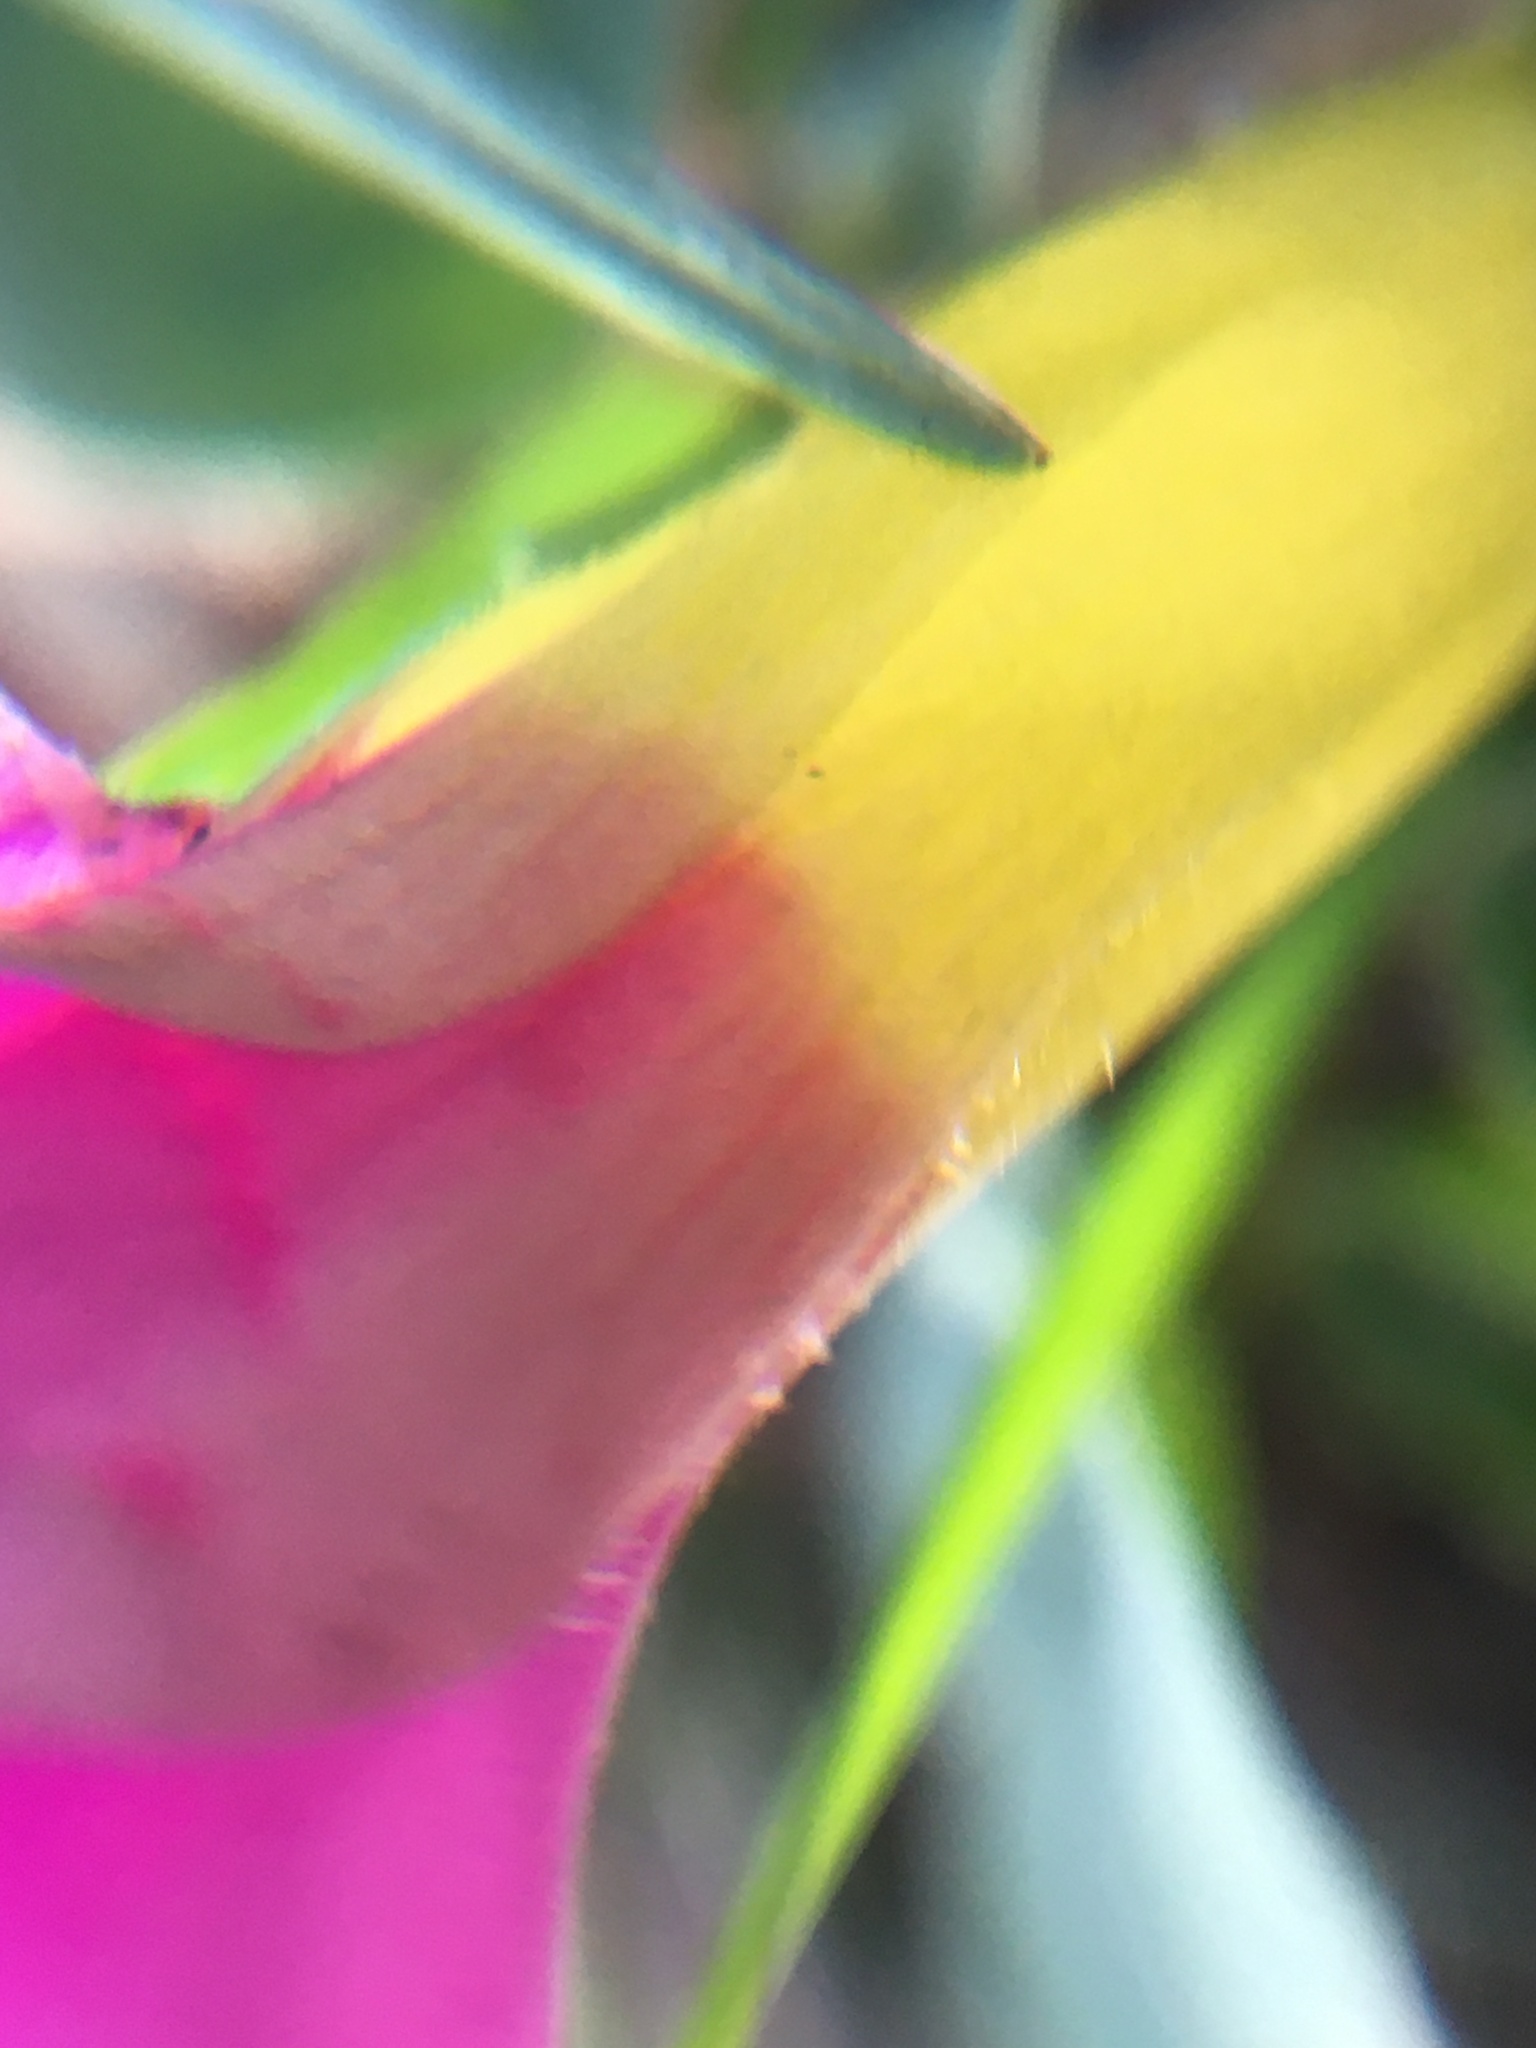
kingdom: Plantae
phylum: Tracheophyta
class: Magnoliopsida
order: Oxalidales
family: Oxalidaceae
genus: Oxalis
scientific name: Oxalis purpurea
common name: Purple woodsorrel
